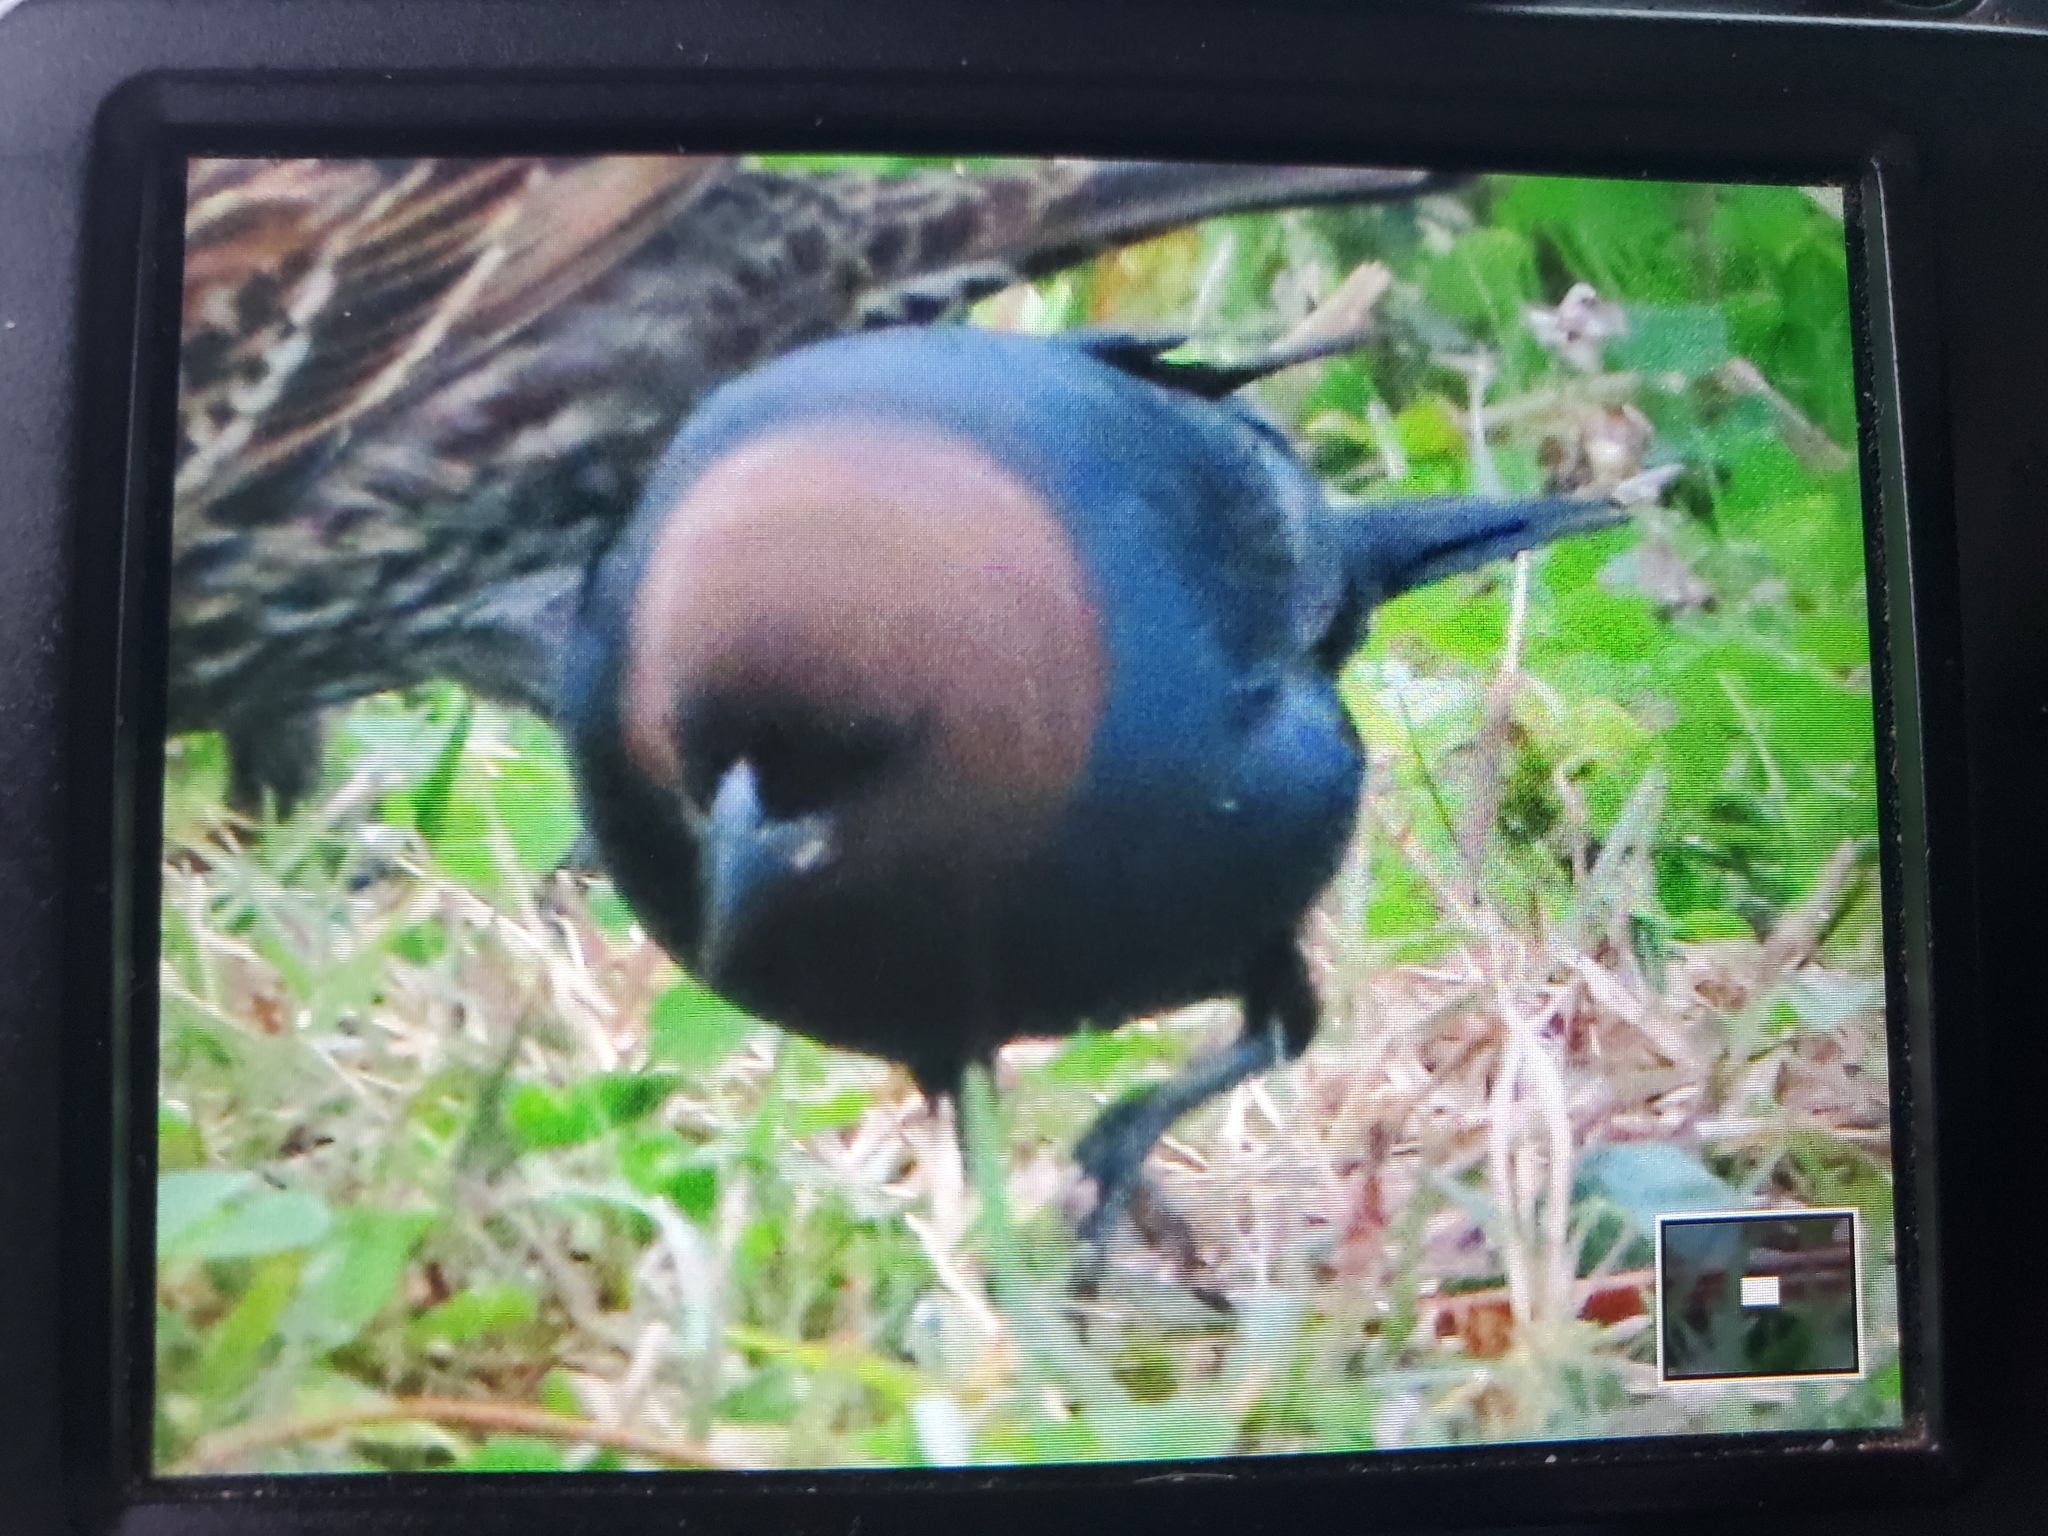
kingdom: Animalia
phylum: Chordata
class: Aves
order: Passeriformes
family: Icteridae
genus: Molothrus
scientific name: Molothrus ater
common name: Brown-headed cowbird
